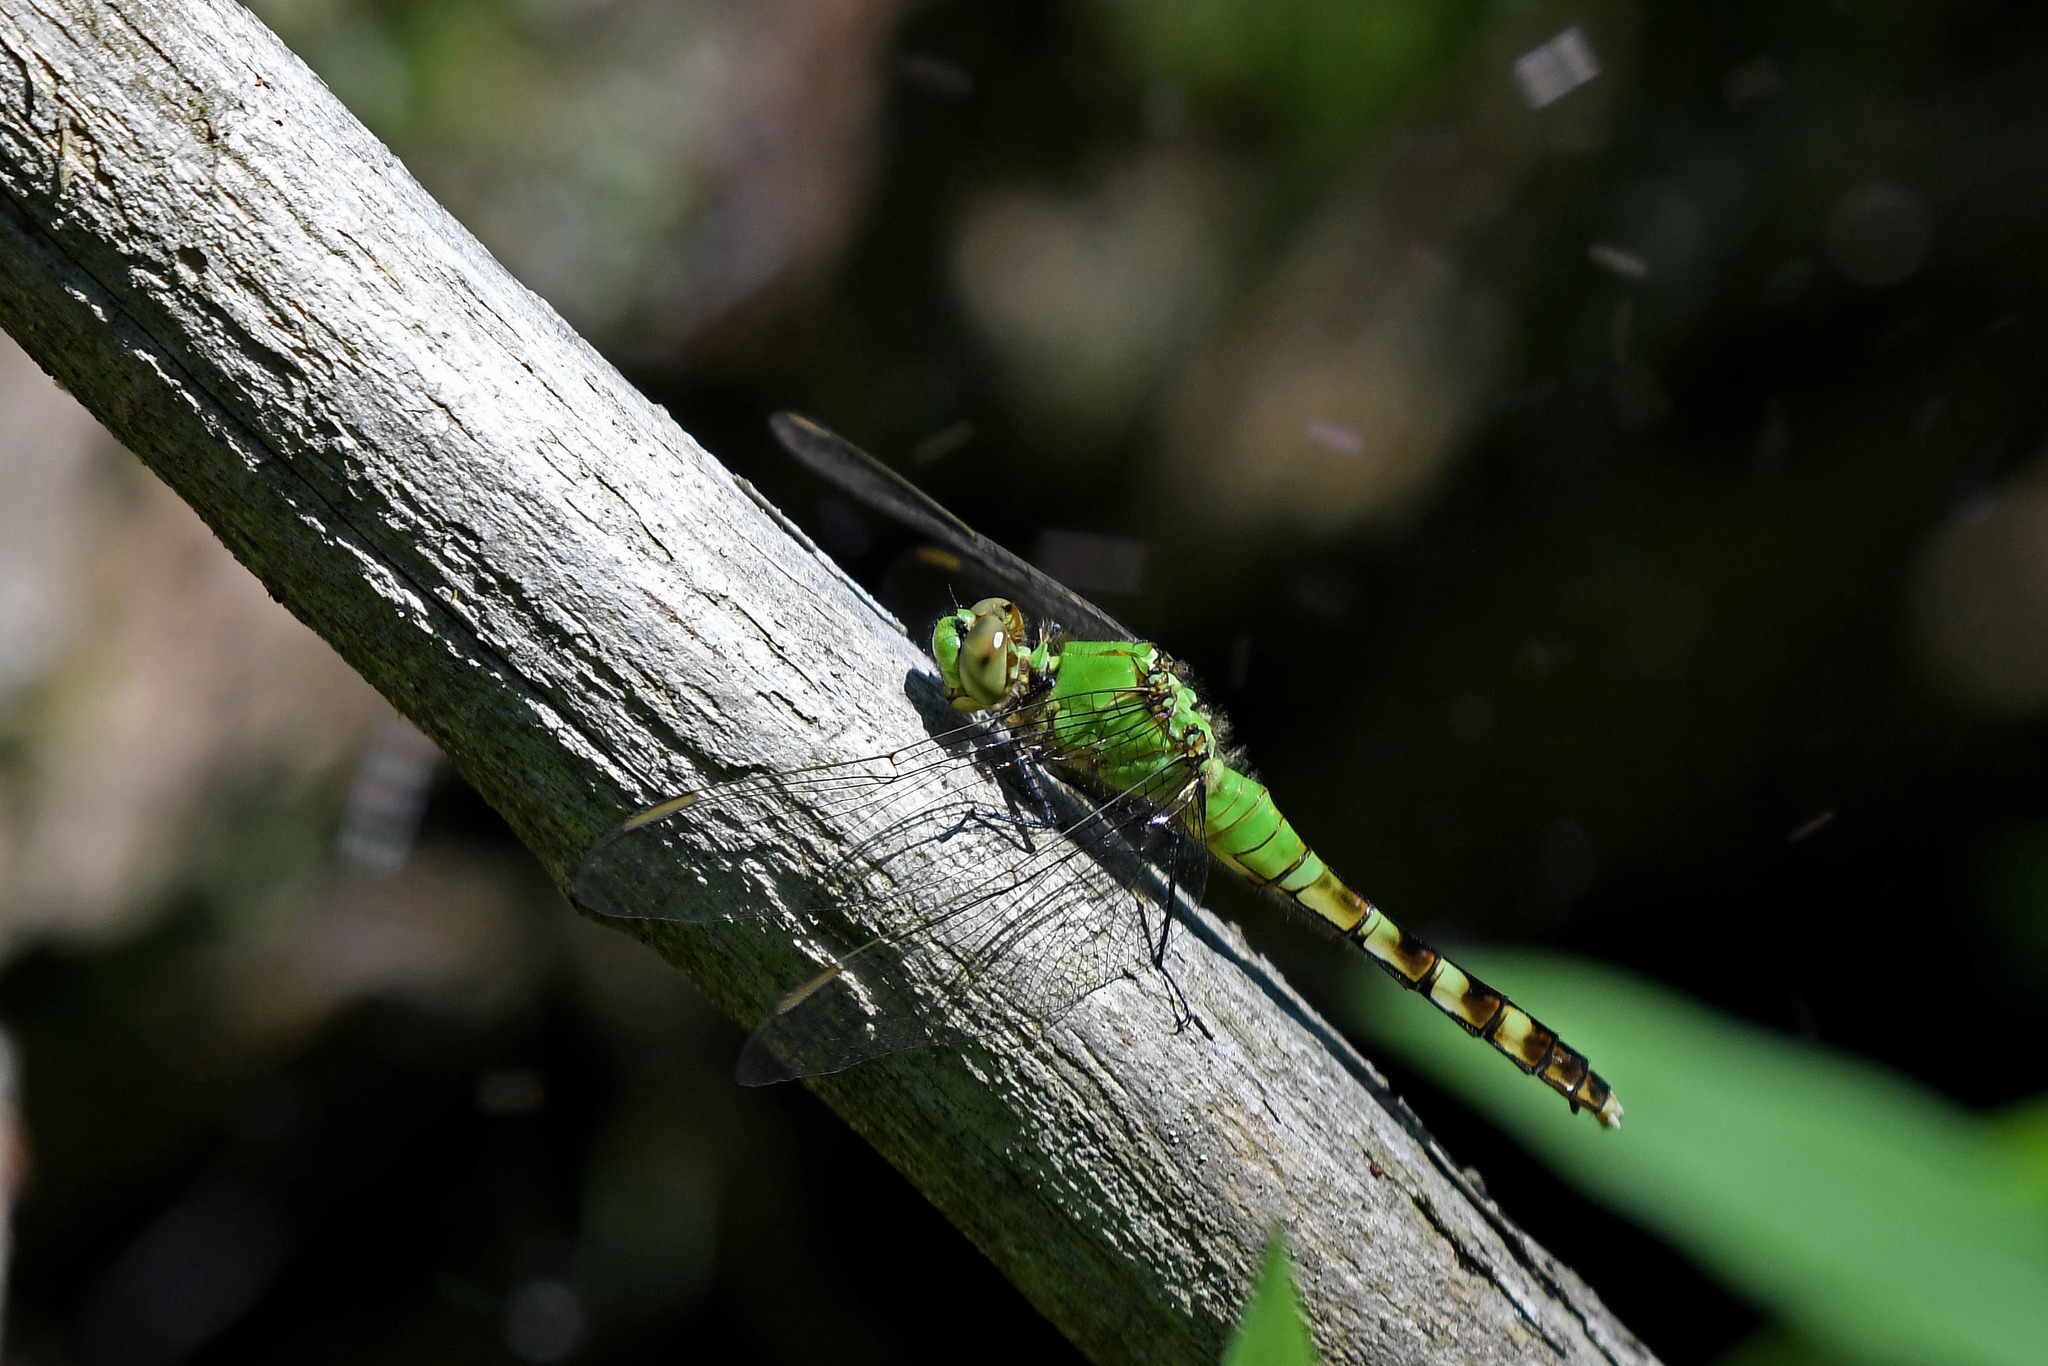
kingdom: Animalia
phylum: Arthropoda
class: Insecta
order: Odonata
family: Libellulidae
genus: Erythemis
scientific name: Erythemis simplicicollis
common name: Eastern pondhawk
